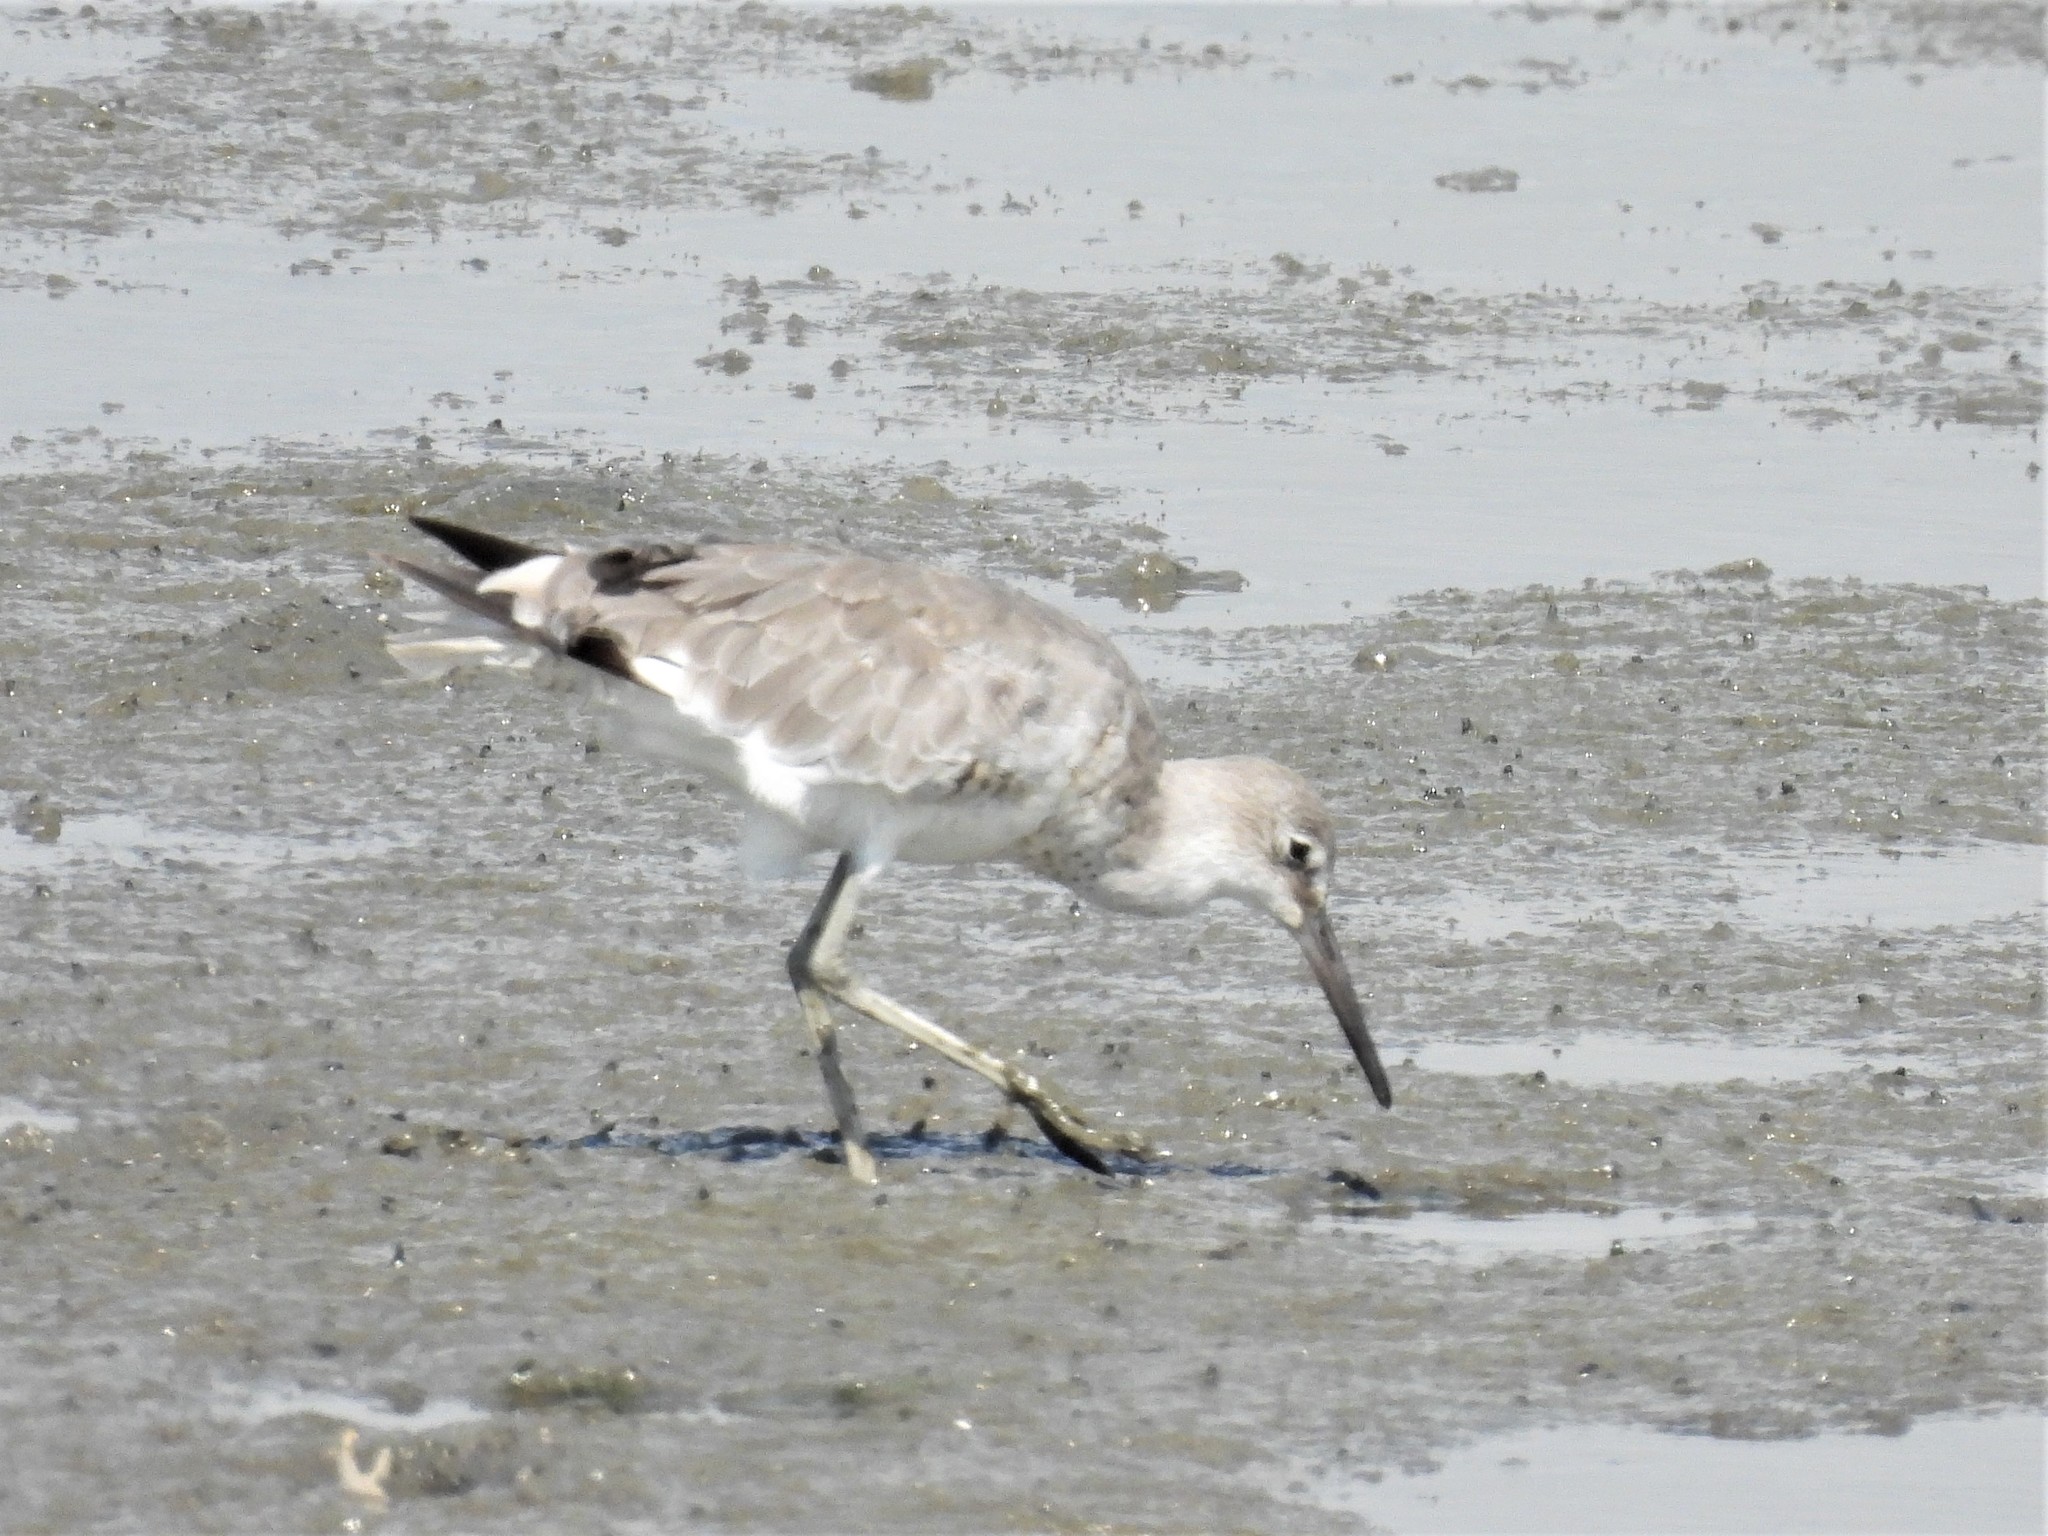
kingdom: Animalia
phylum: Chordata
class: Aves
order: Charadriiformes
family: Scolopacidae
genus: Tringa
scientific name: Tringa semipalmata
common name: Willet
